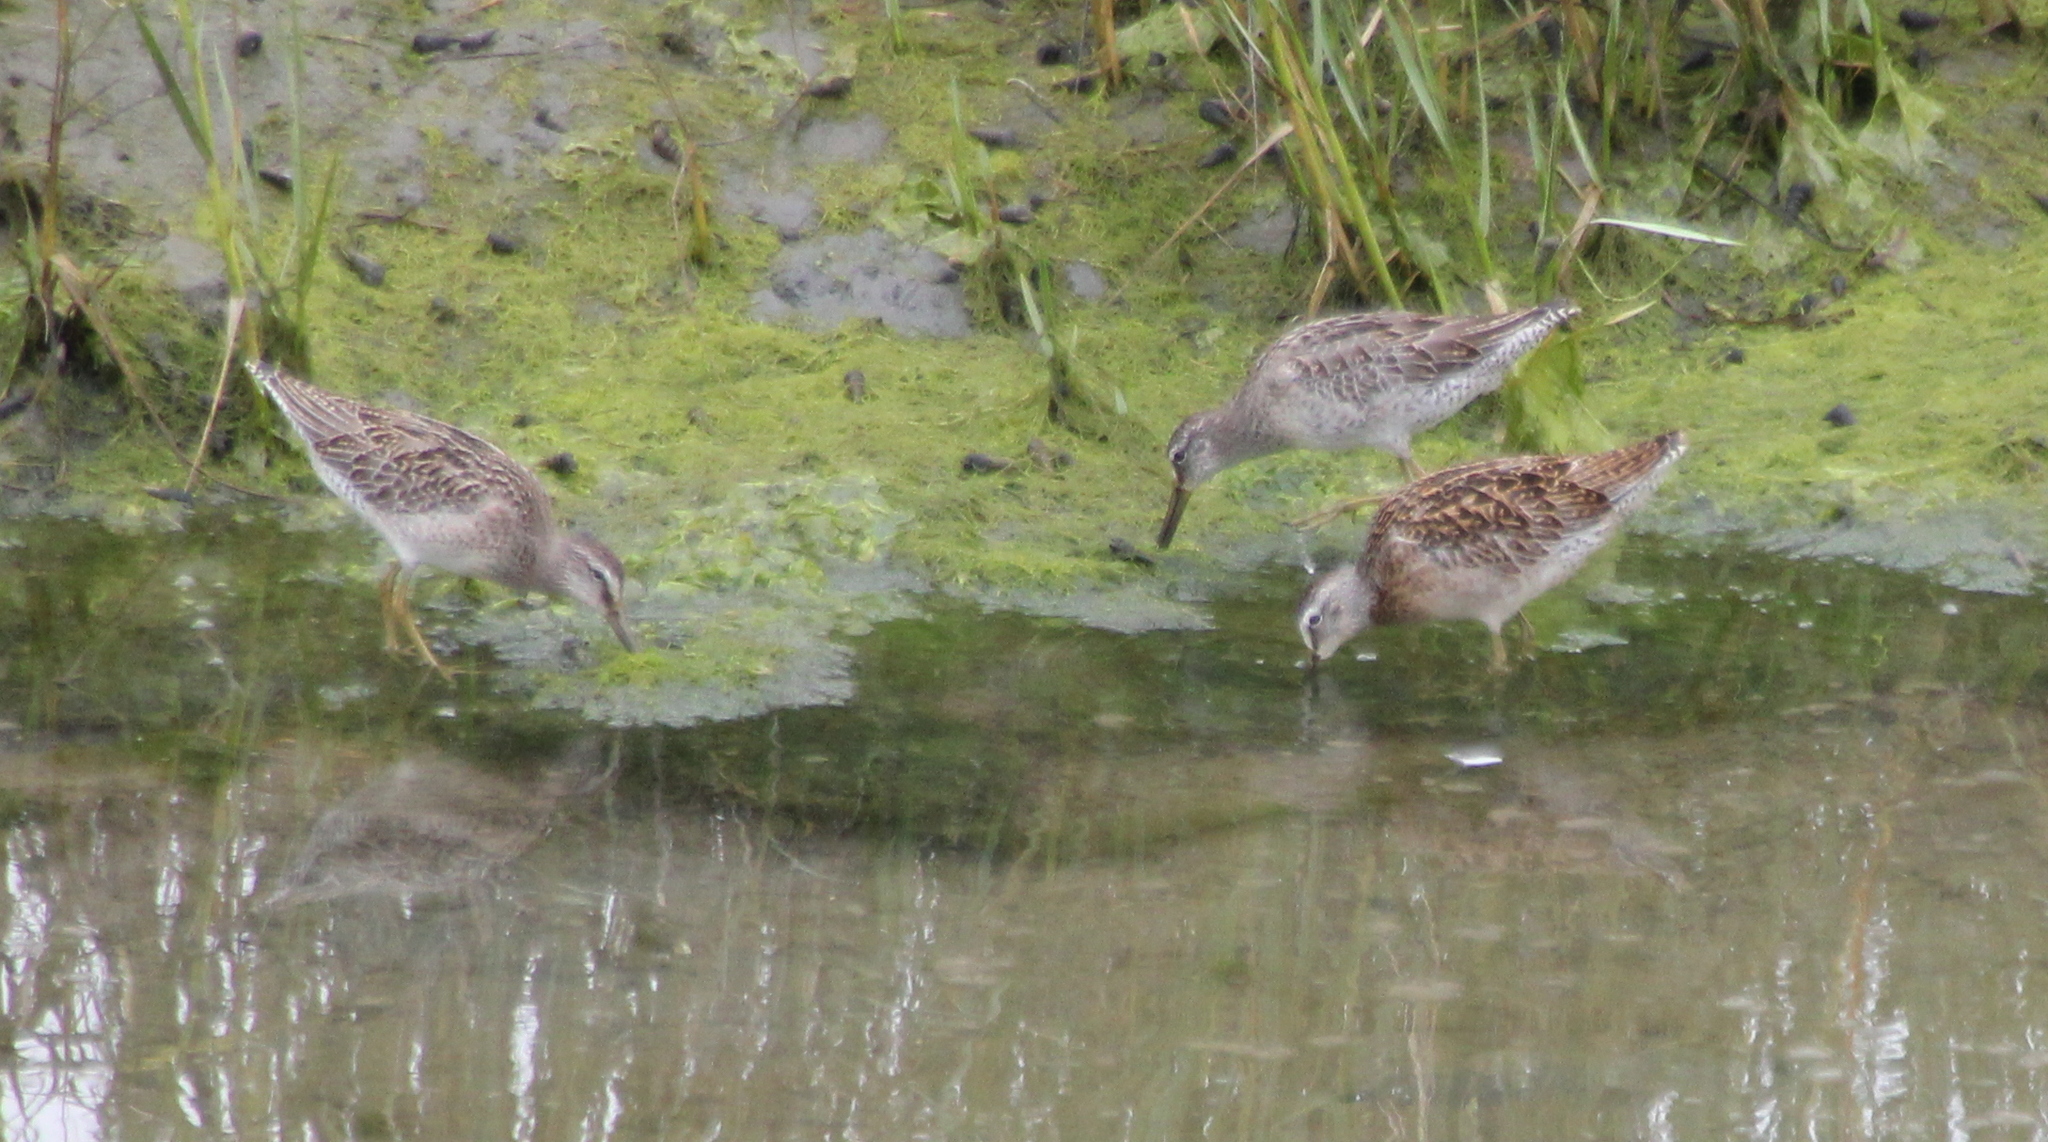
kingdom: Animalia
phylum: Chordata
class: Aves
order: Charadriiformes
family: Scolopacidae
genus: Limnodromus
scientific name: Limnodromus griseus
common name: Short-billed dowitcher
